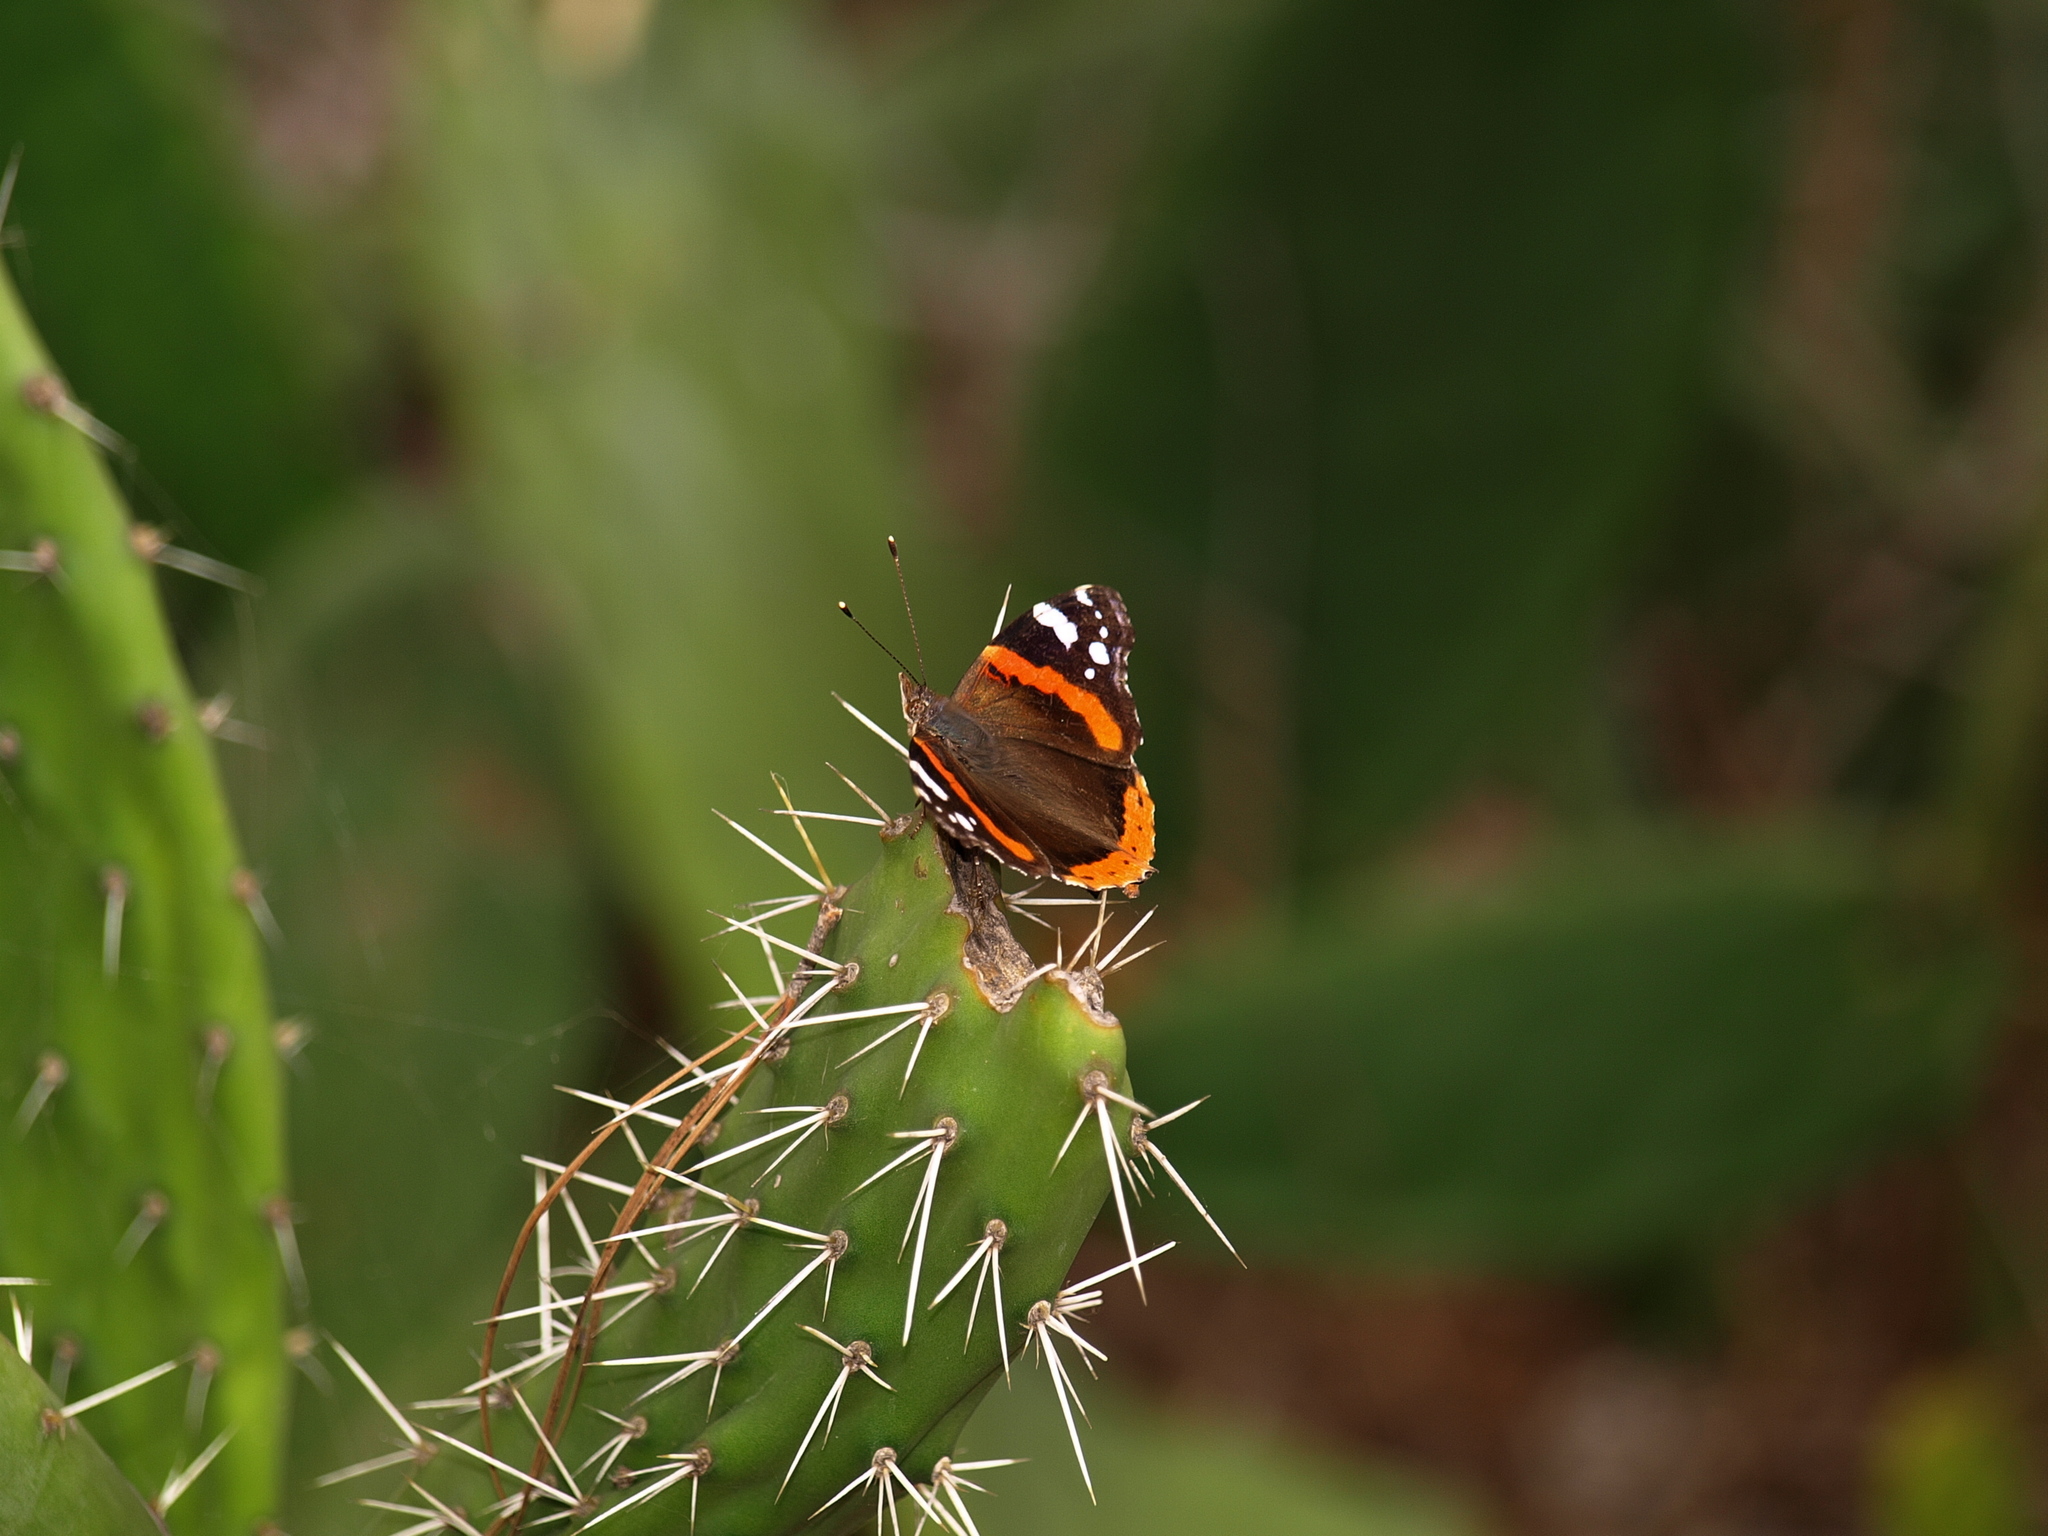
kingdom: Animalia
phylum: Arthropoda
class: Insecta
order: Lepidoptera
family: Nymphalidae
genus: Vanessa
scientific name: Vanessa atalanta
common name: Red admiral
